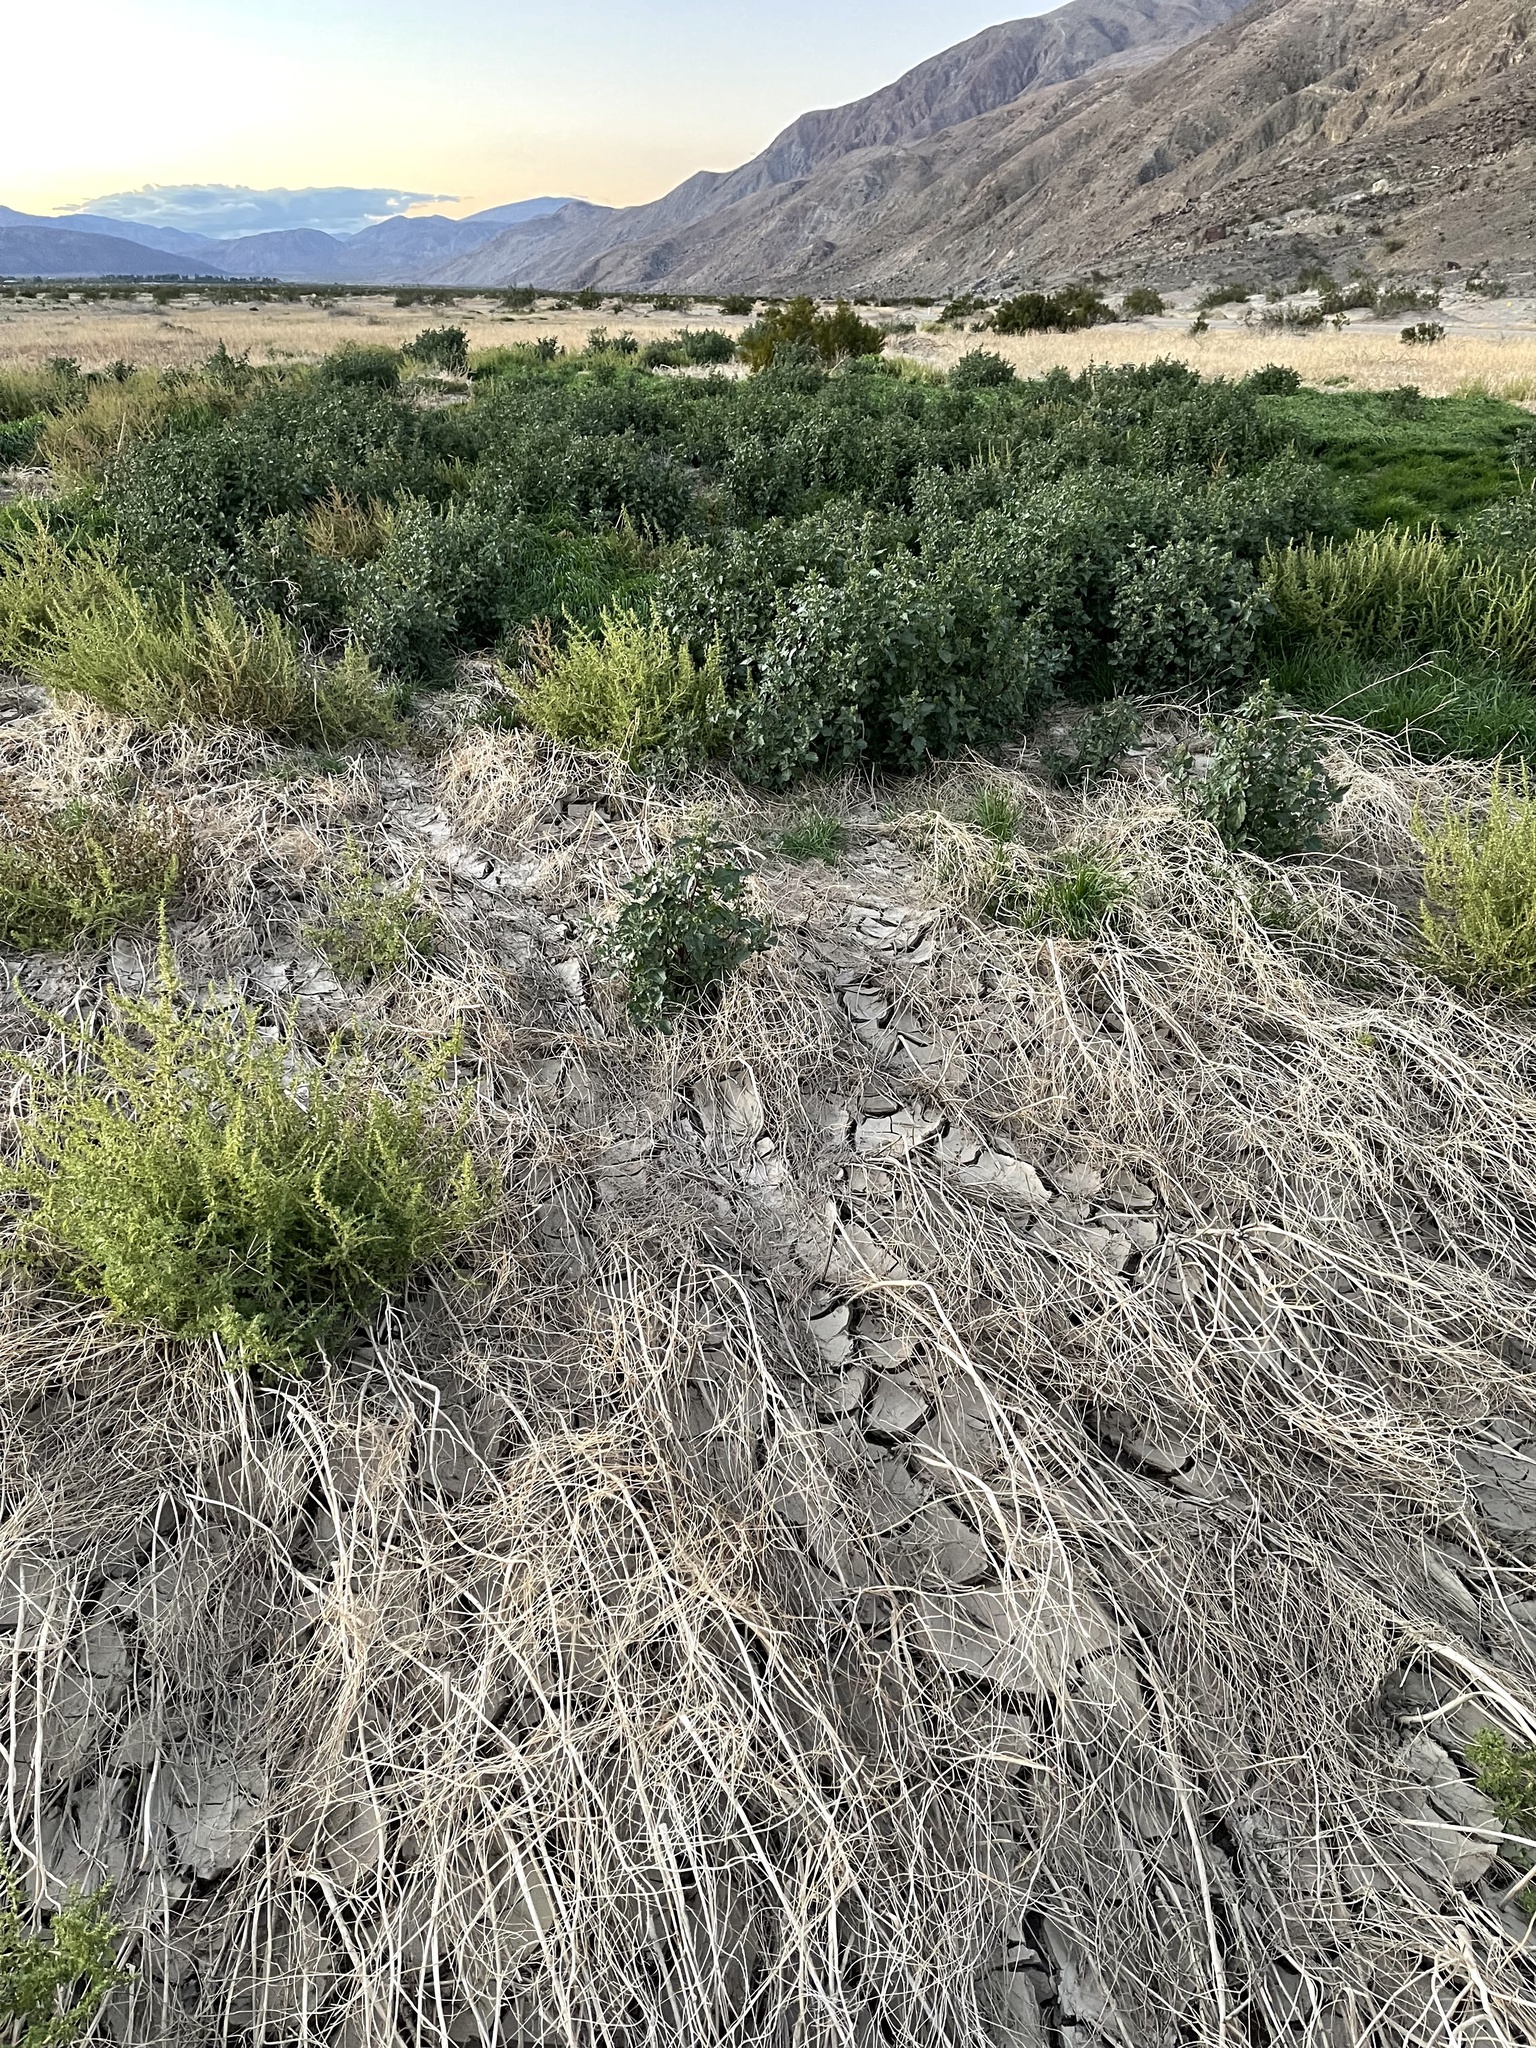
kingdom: Plantae
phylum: Tracheophyta
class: Magnoliopsida
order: Caryophyllales
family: Amaranthaceae
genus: Chenopodiastrum
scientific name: Chenopodiastrum murale
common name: Sowbane
